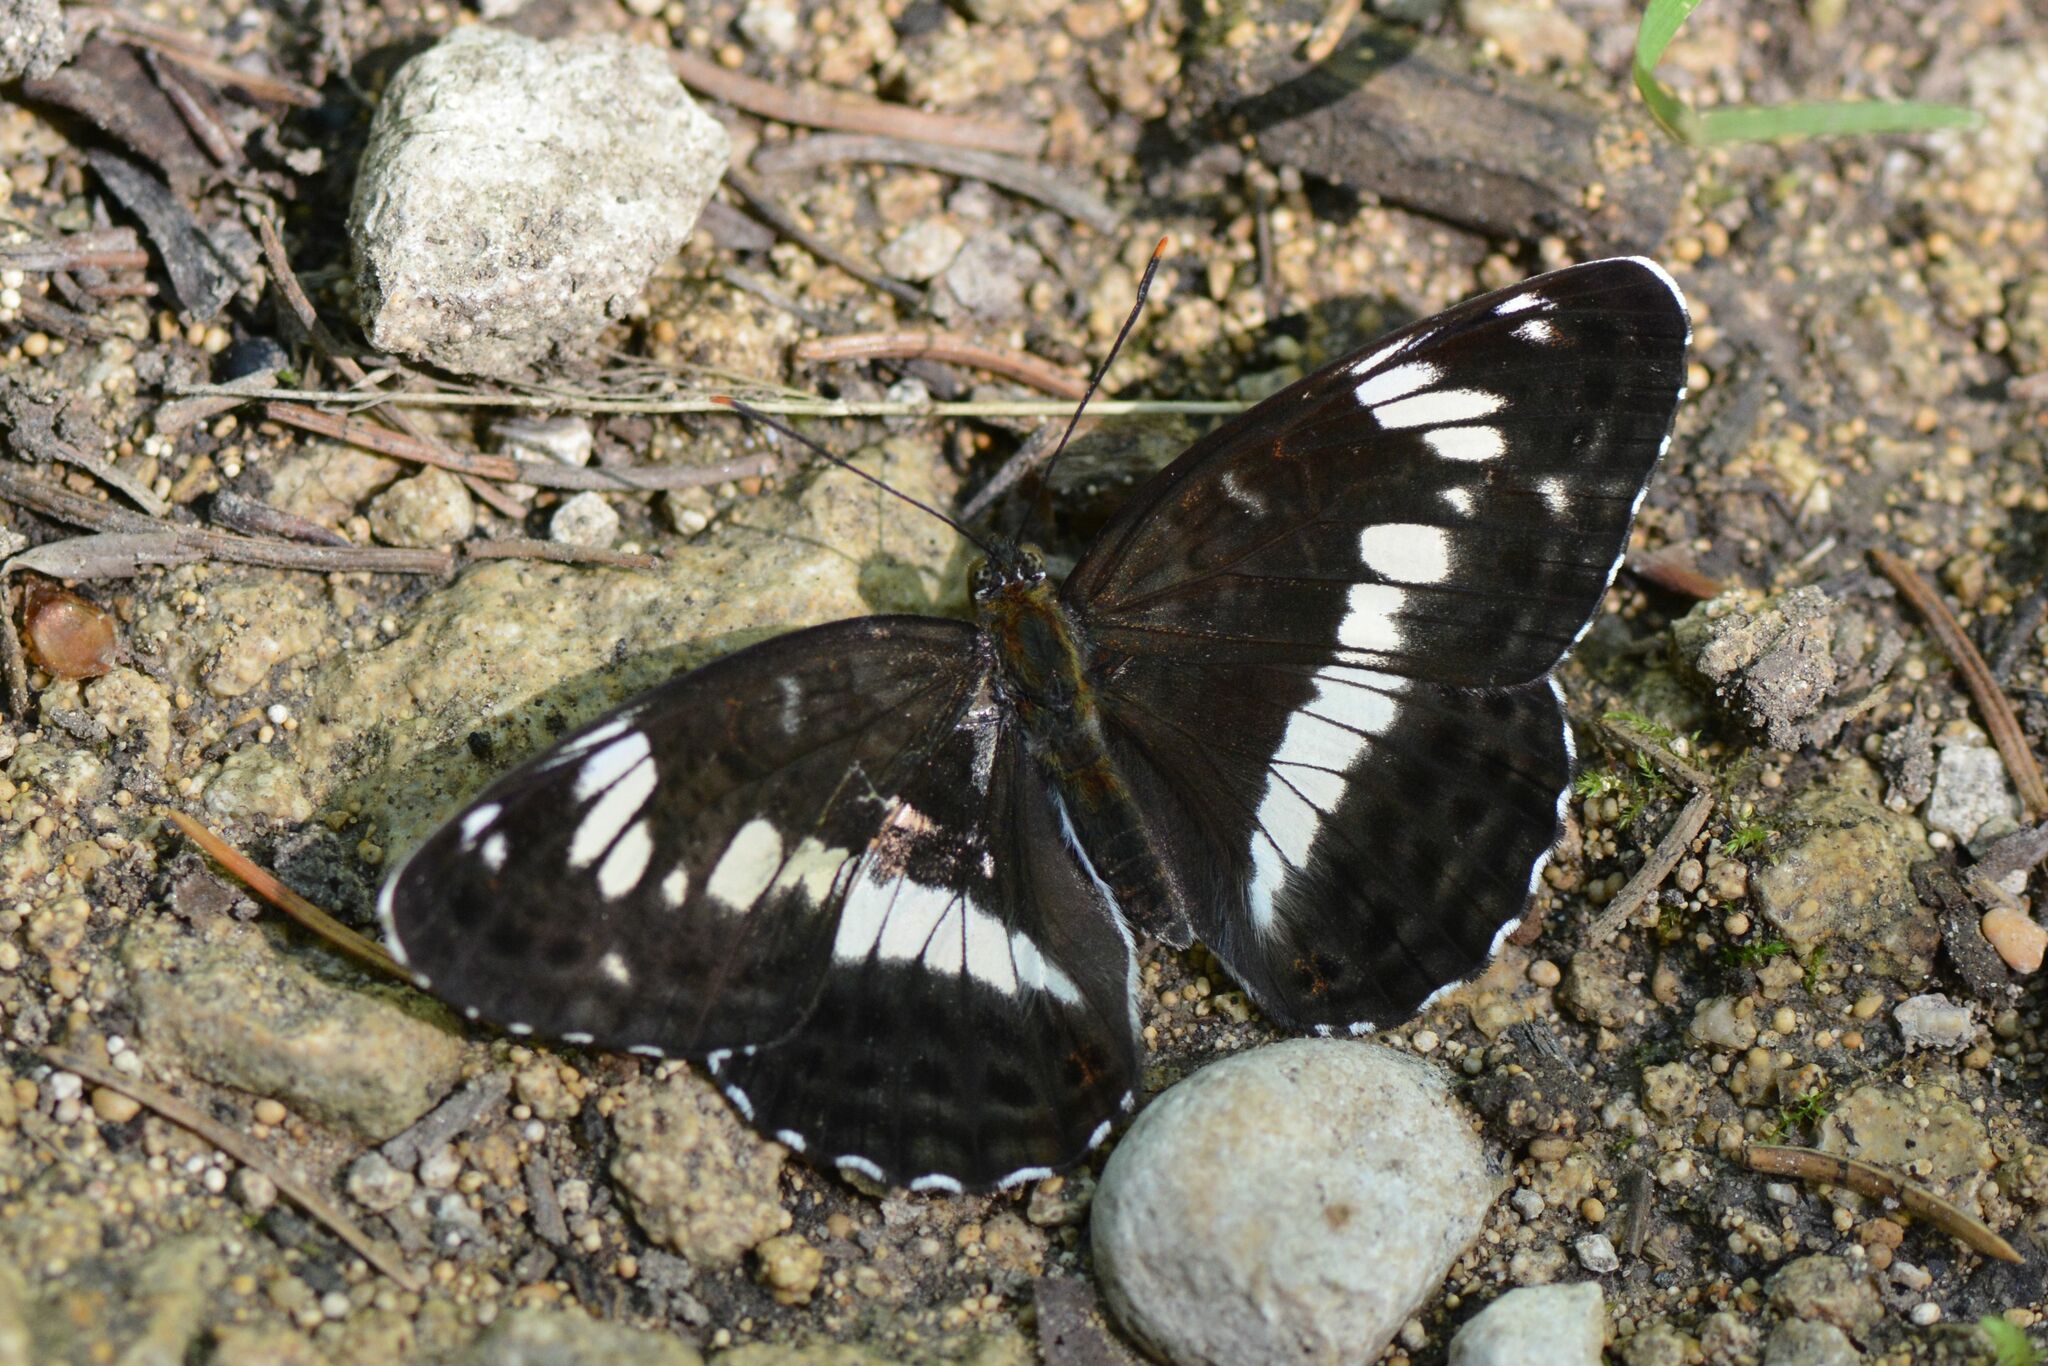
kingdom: Animalia
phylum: Arthropoda
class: Insecta
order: Lepidoptera
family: Nymphalidae
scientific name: Nymphalidae
